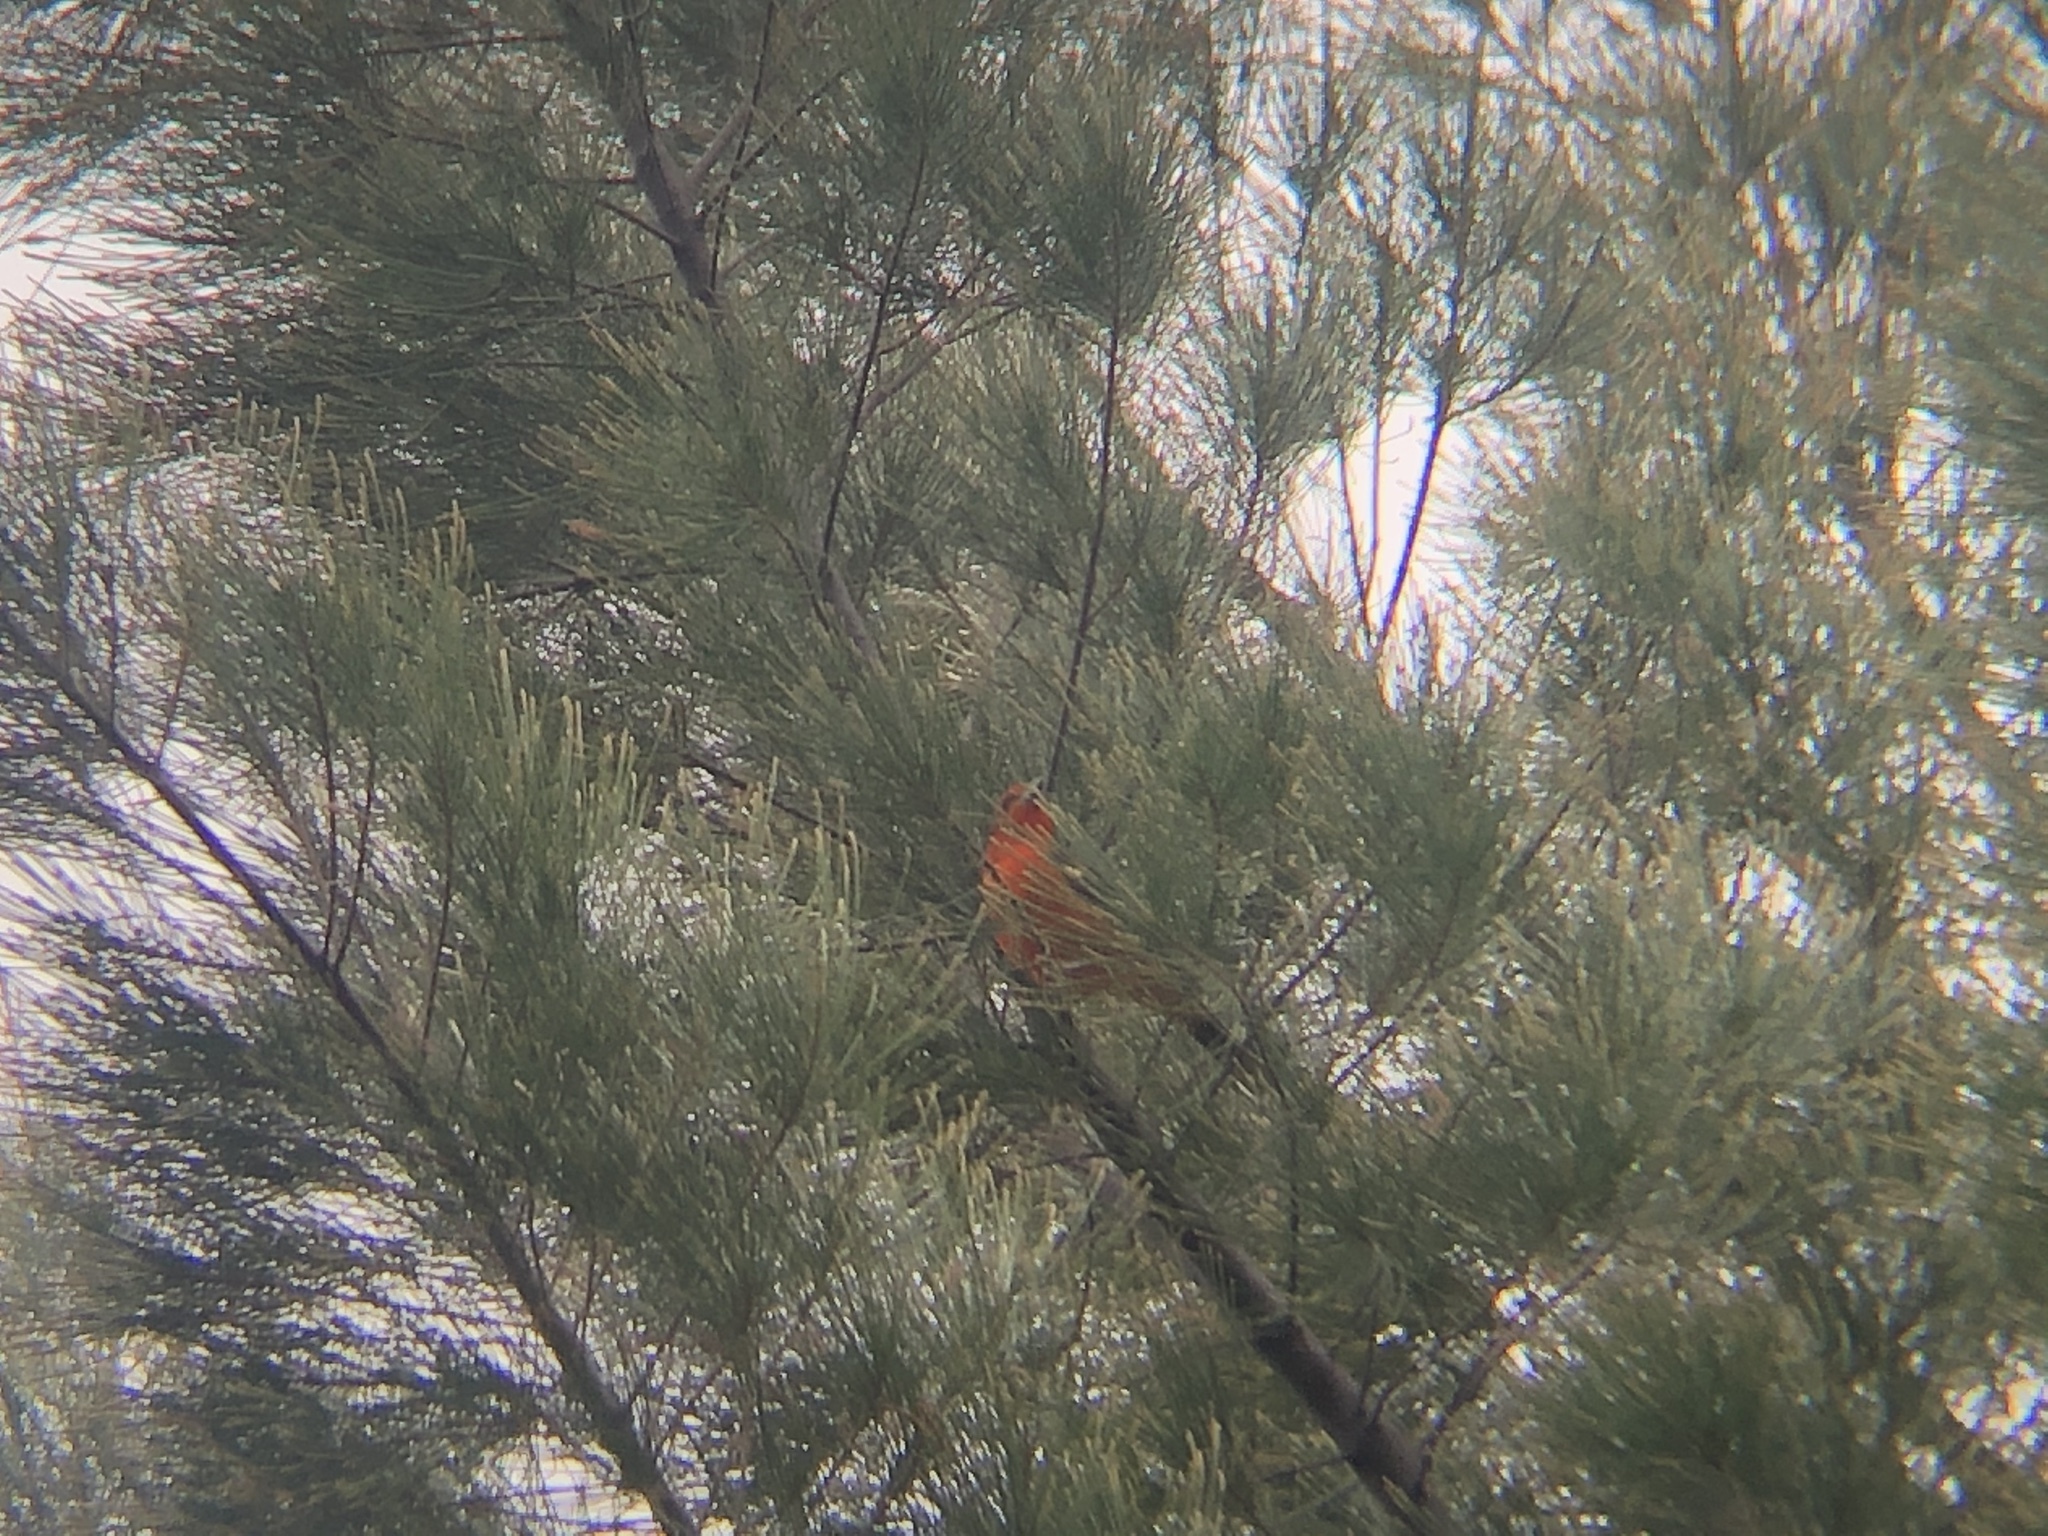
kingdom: Animalia
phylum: Chordata
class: Aves
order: Passeriformes
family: Cardinalidae
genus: Piranga
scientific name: Piranga flava
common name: Red tanager
